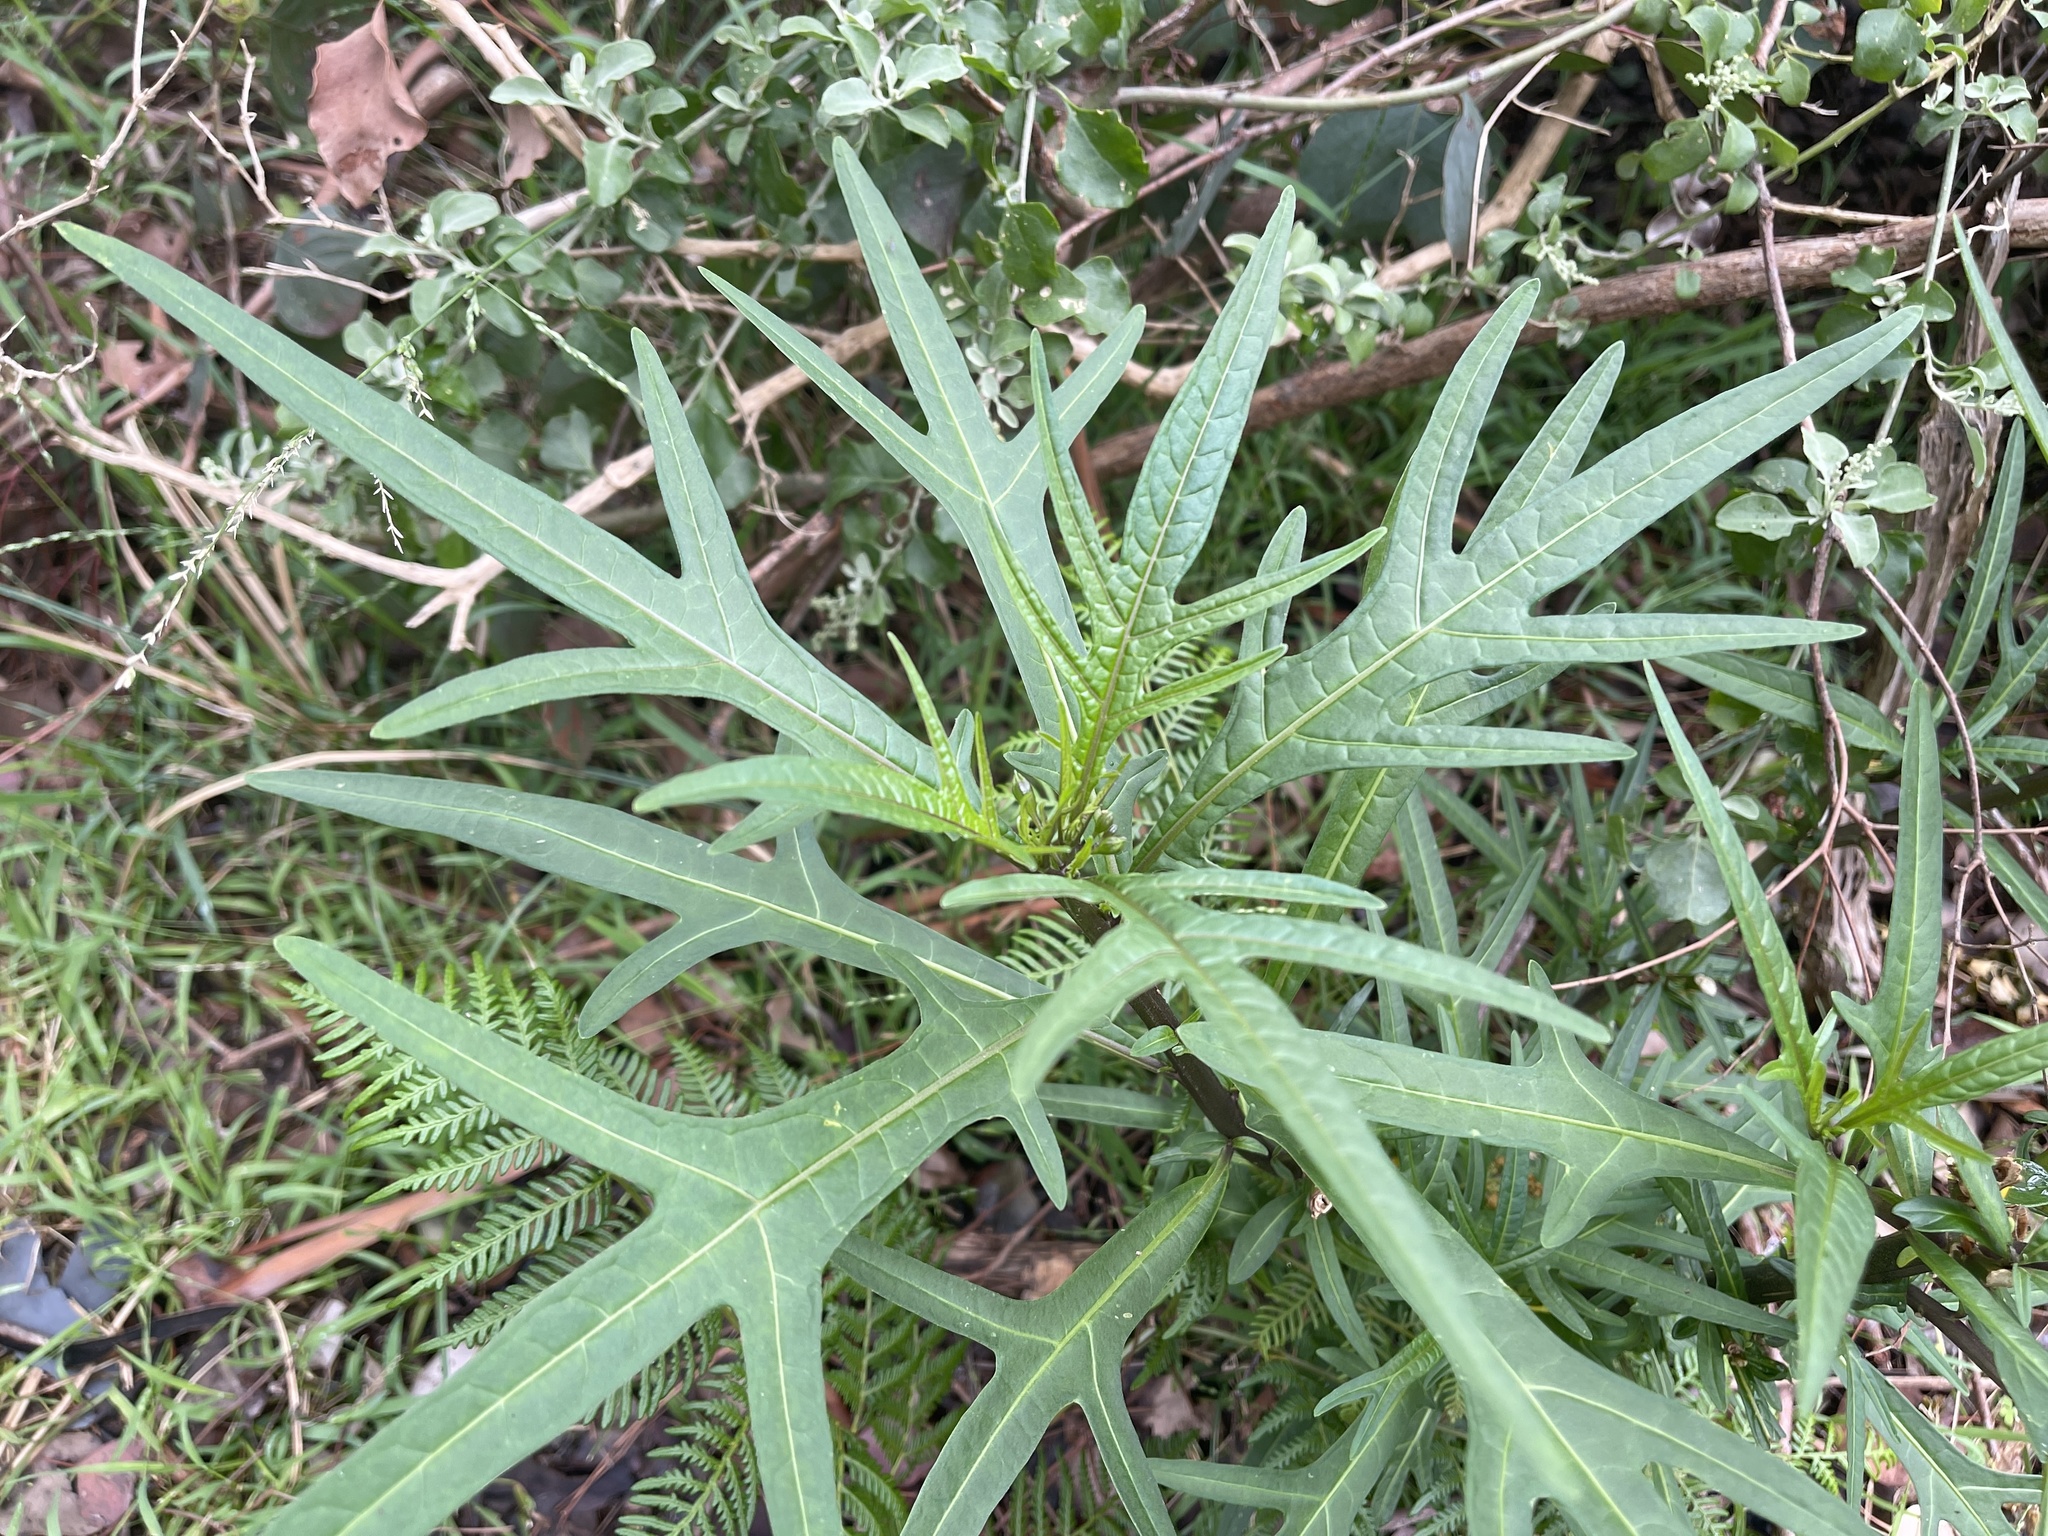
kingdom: Plantae
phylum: Tracheophyta
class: Magnoliopsida
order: Solanales
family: Solanaceae
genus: Solanum
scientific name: Solanum
